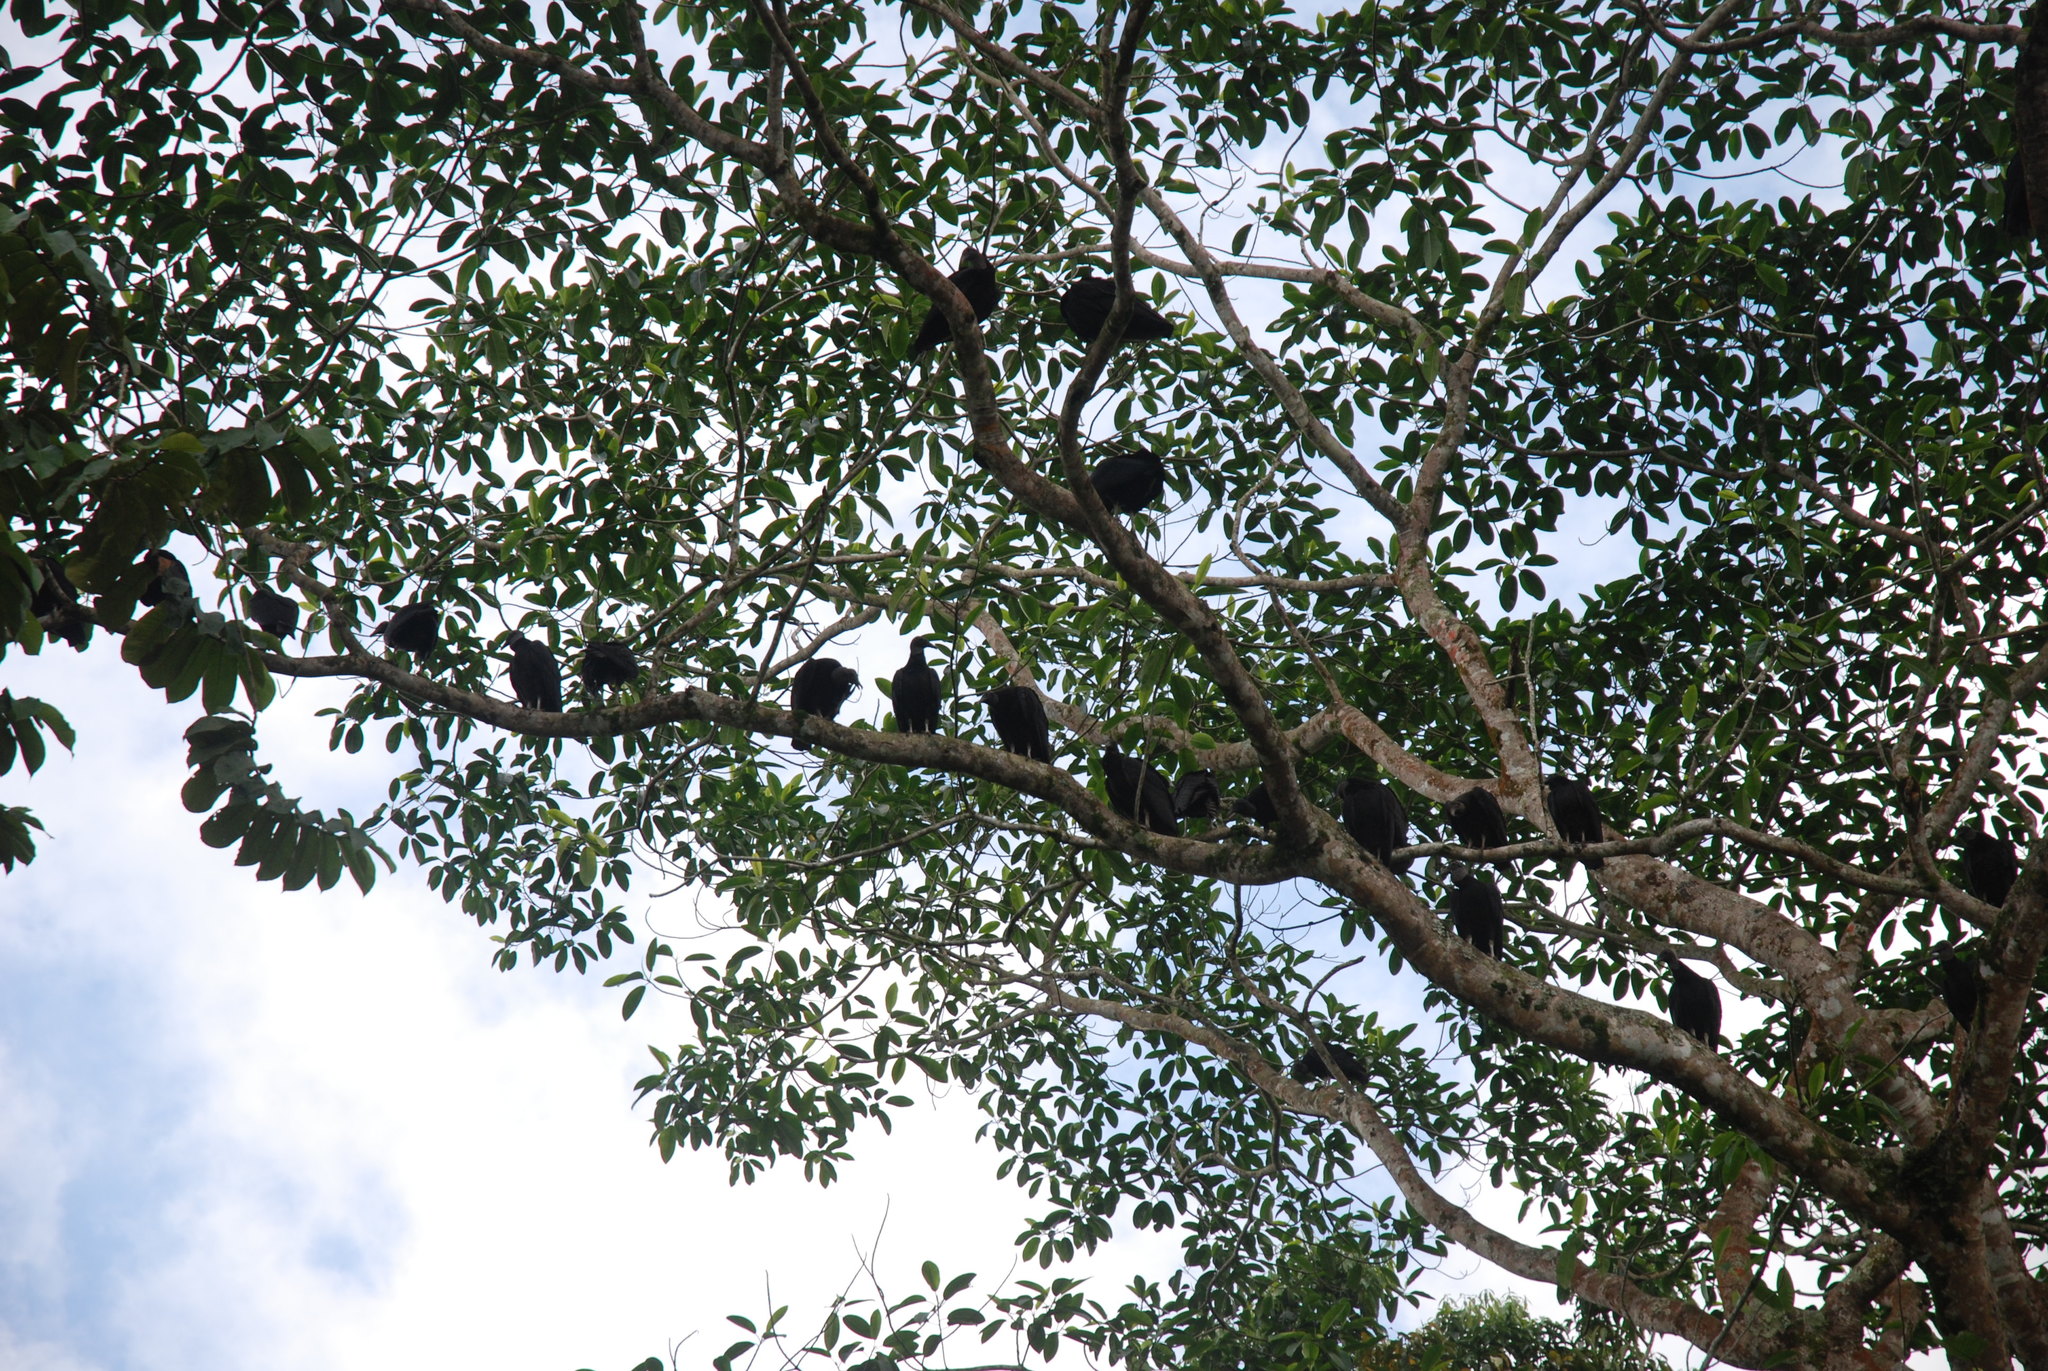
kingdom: Animalia
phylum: Chordata
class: Aves
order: Accipitriformes
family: Cathartidae
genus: Coragyps
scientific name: Coragyps atratus
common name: Black vulture
